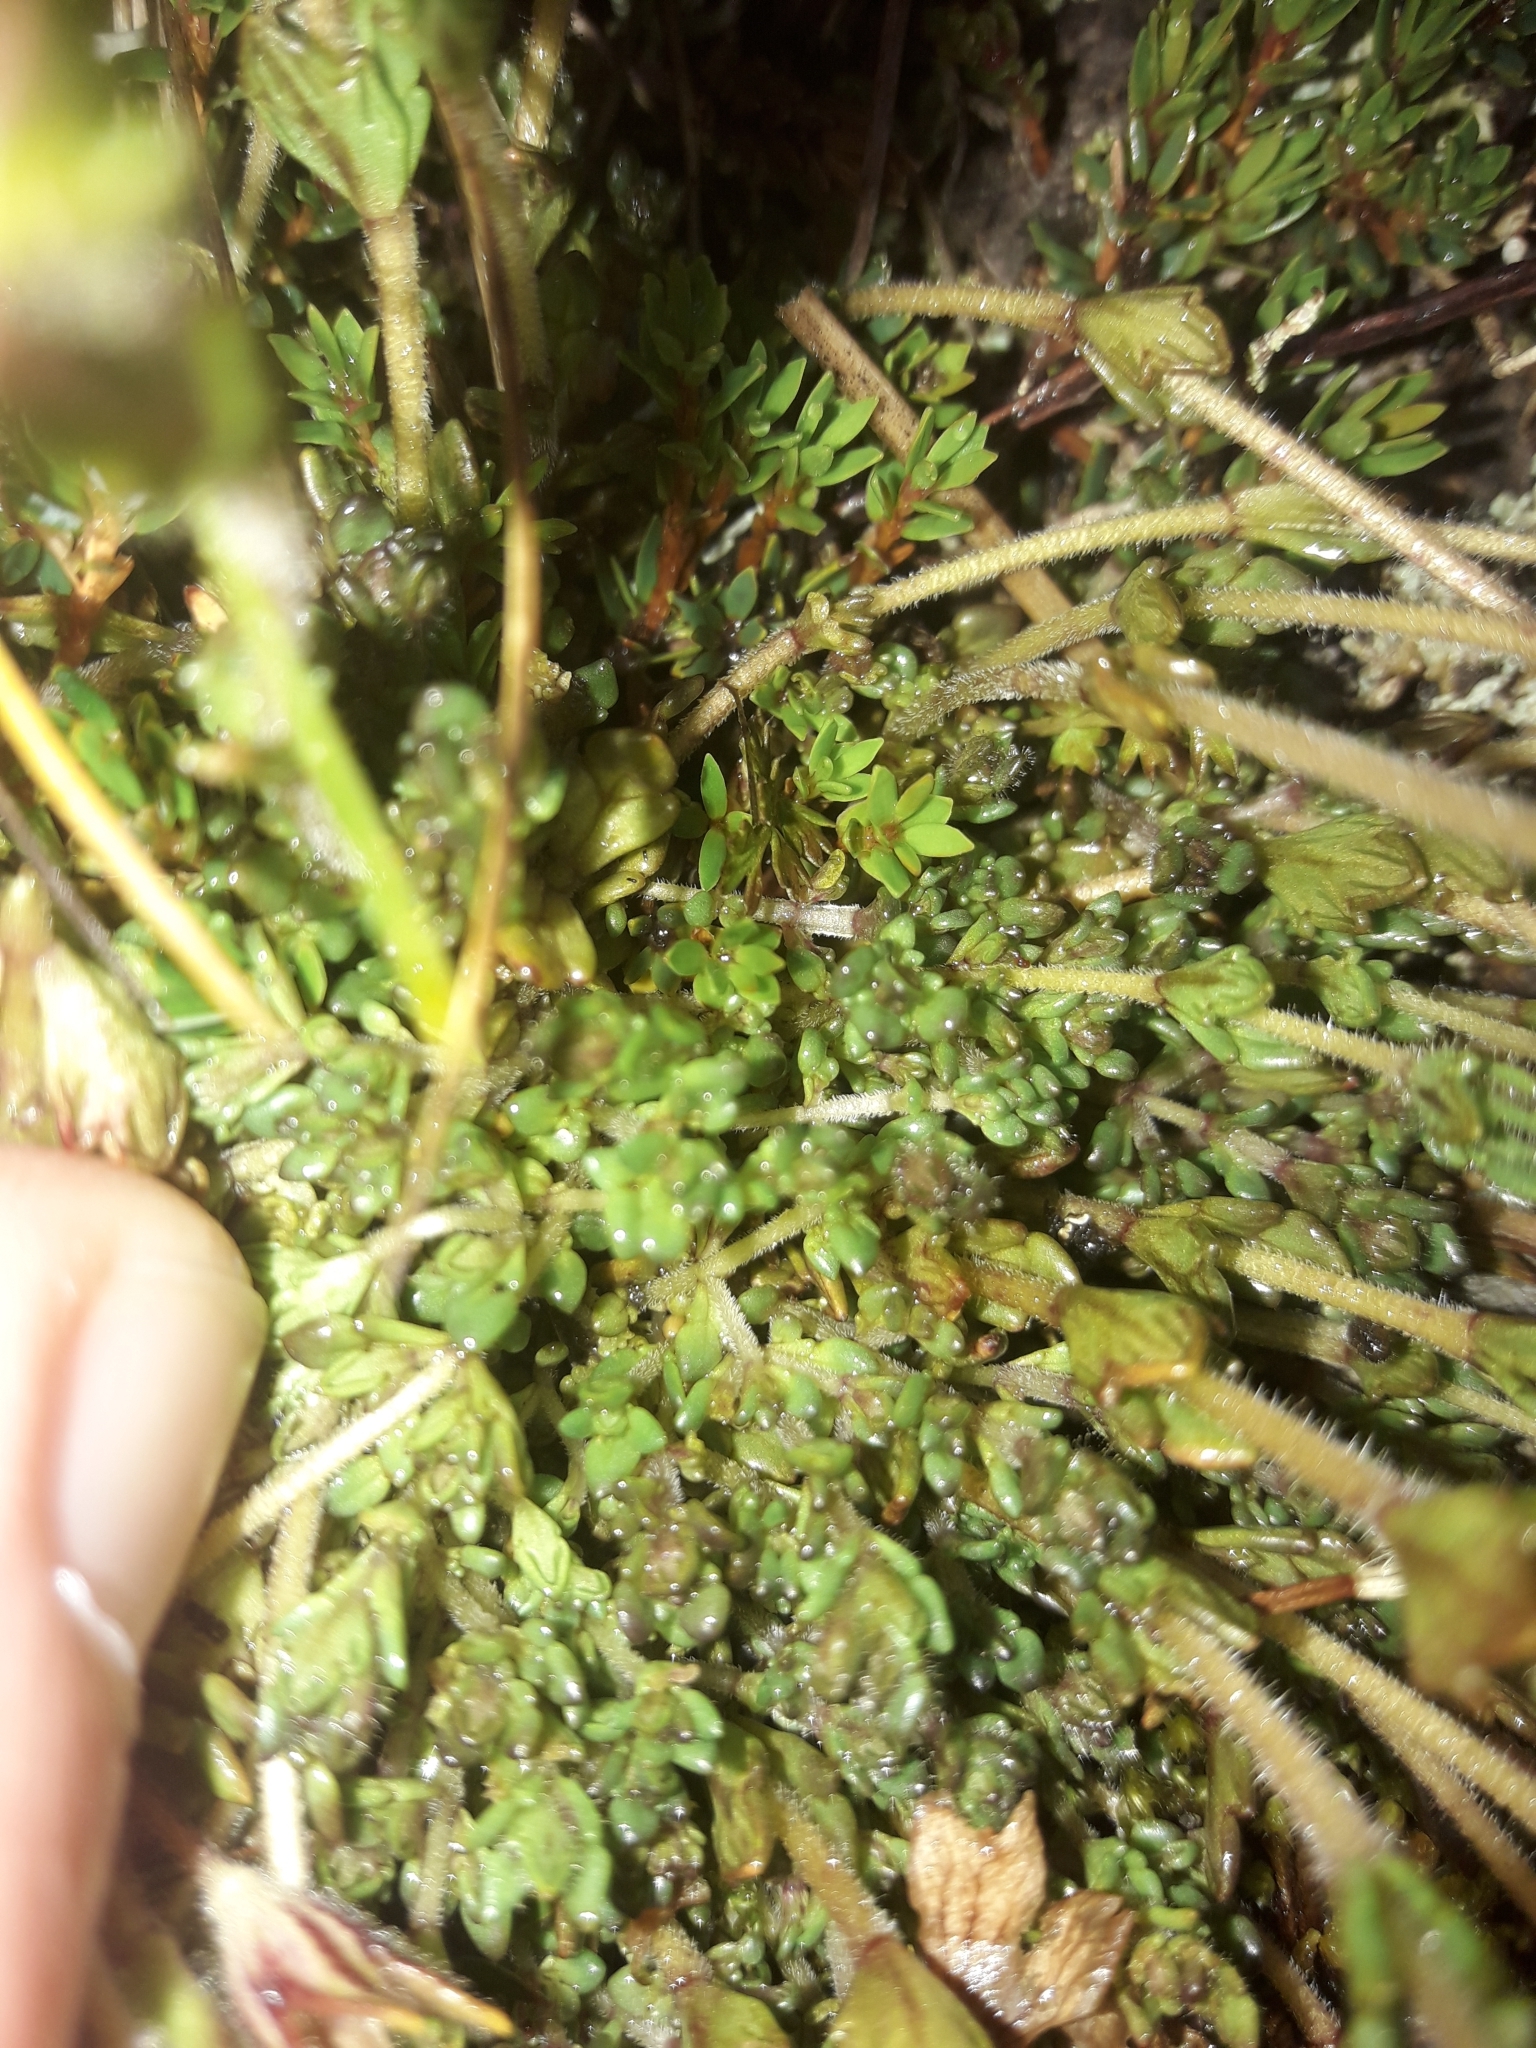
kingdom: Plantae
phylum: Tracheophyta
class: Magnoliopsida
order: Lamiales
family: Orobanchaceae
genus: Euphrasia
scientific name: Euphrasia townsonii
